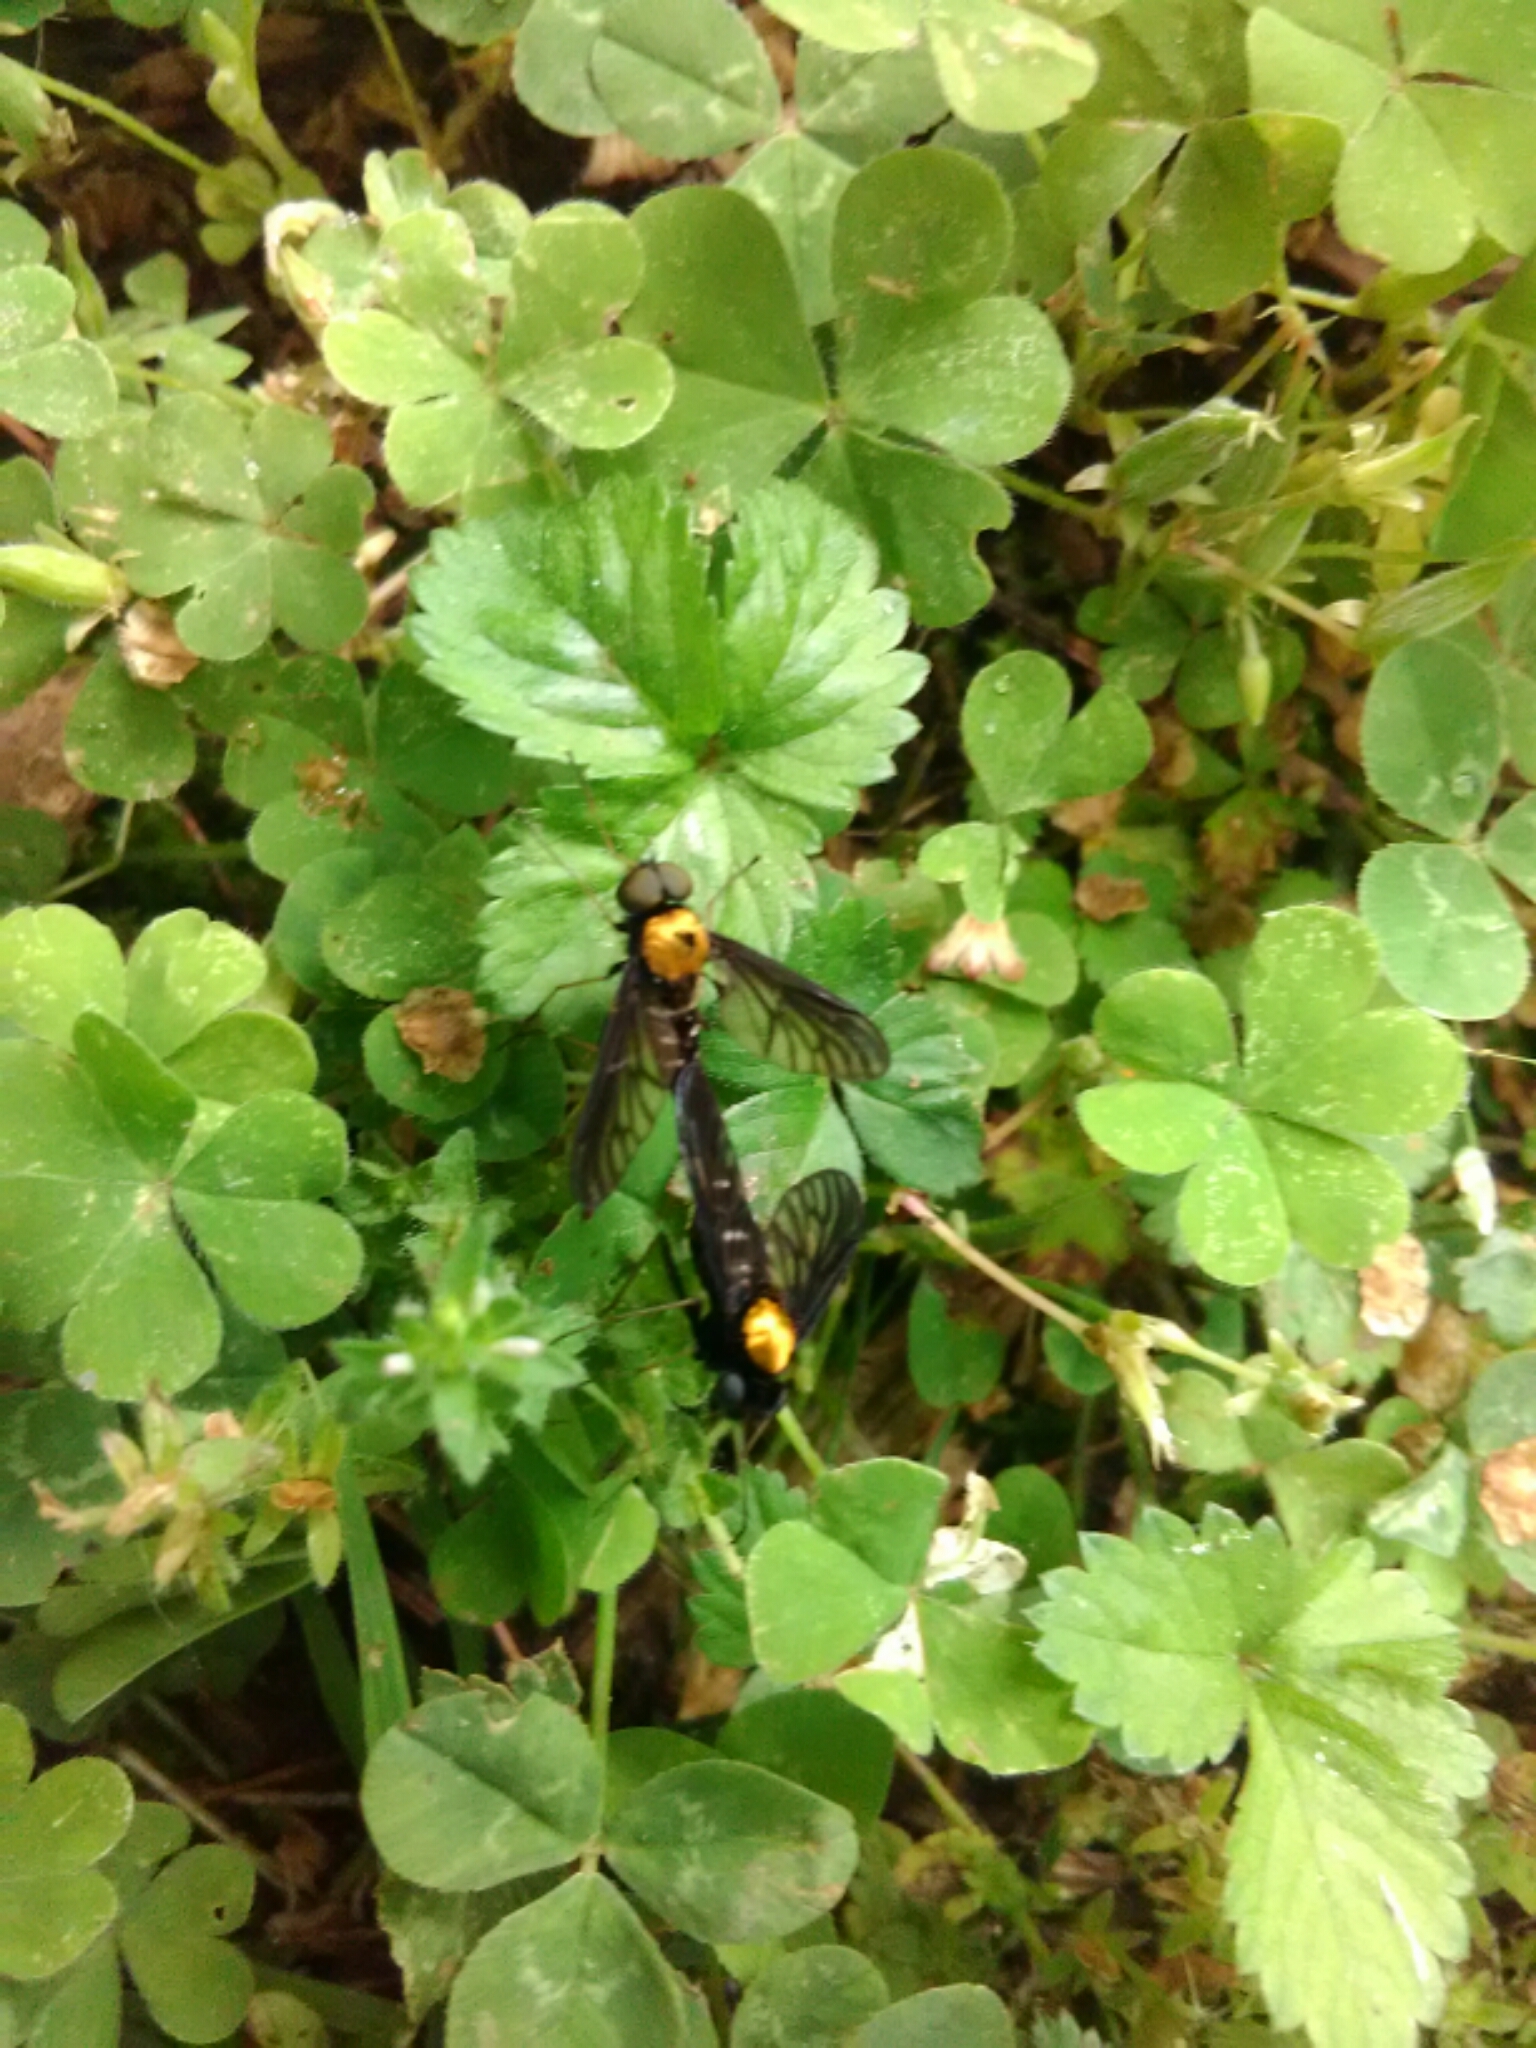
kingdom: Animalia
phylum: Arthropoda
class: Insecta
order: Diptera
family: Rhagionidae
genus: Chrysopilus
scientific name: Chrysopilus thoracicus
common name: Golden-backed snipe fly
